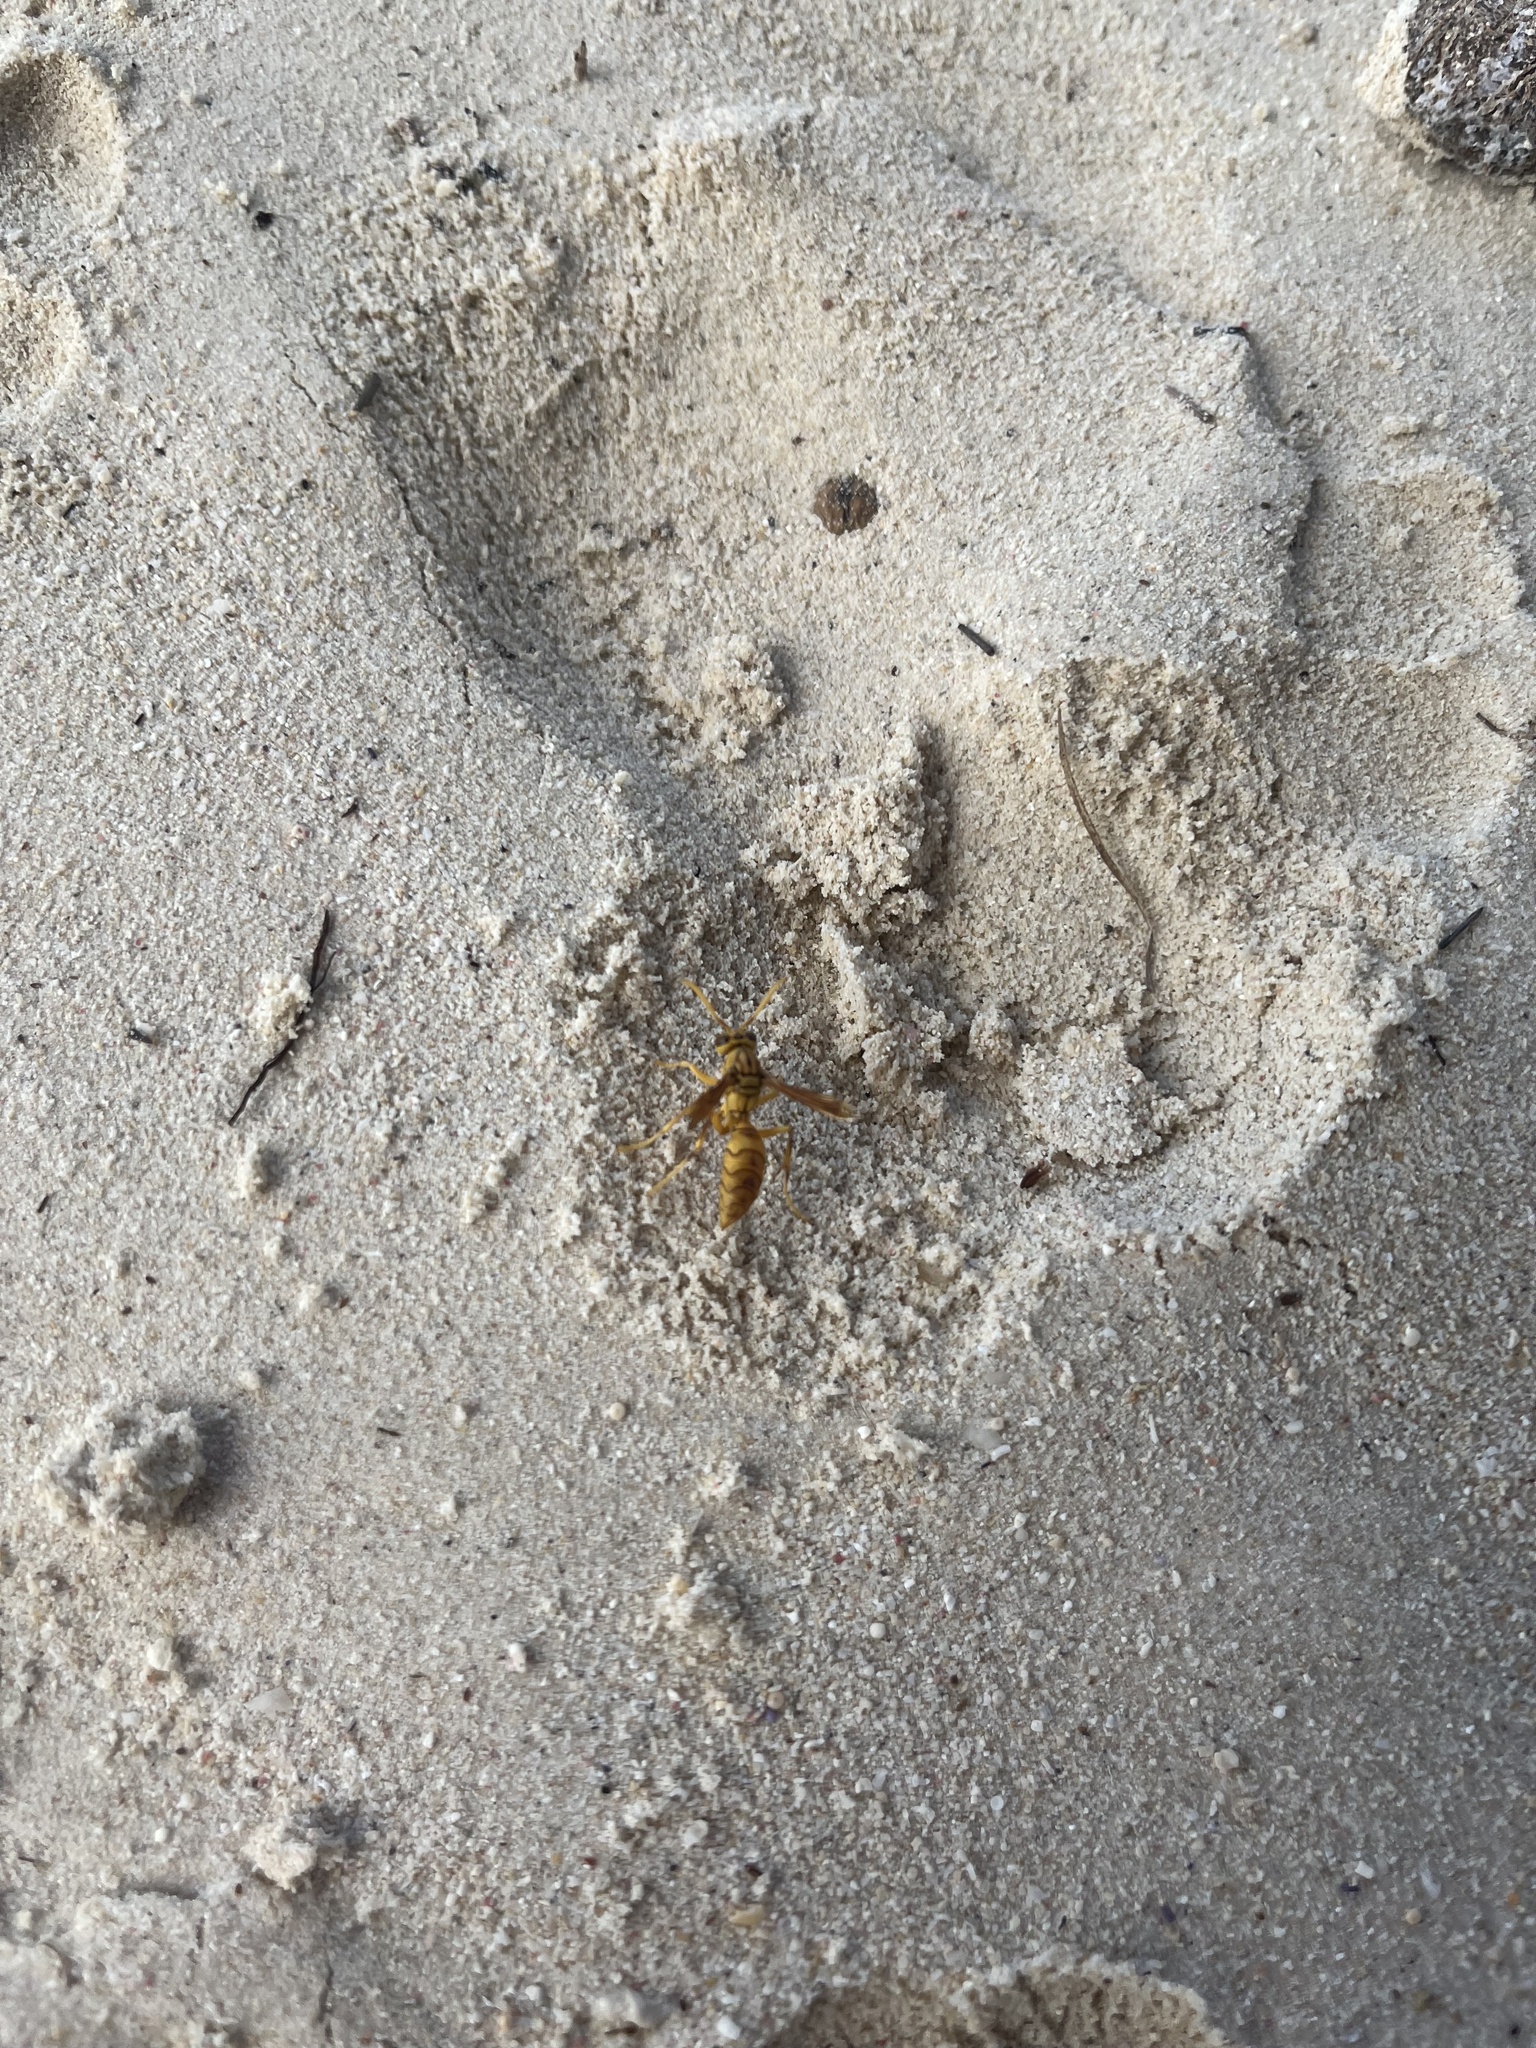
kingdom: Animalia
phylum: Arthropoda
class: Insecta
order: Hymenoptera
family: Eumenidae
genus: Polistes
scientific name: Polistes olivaceus
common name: Paper wasp
